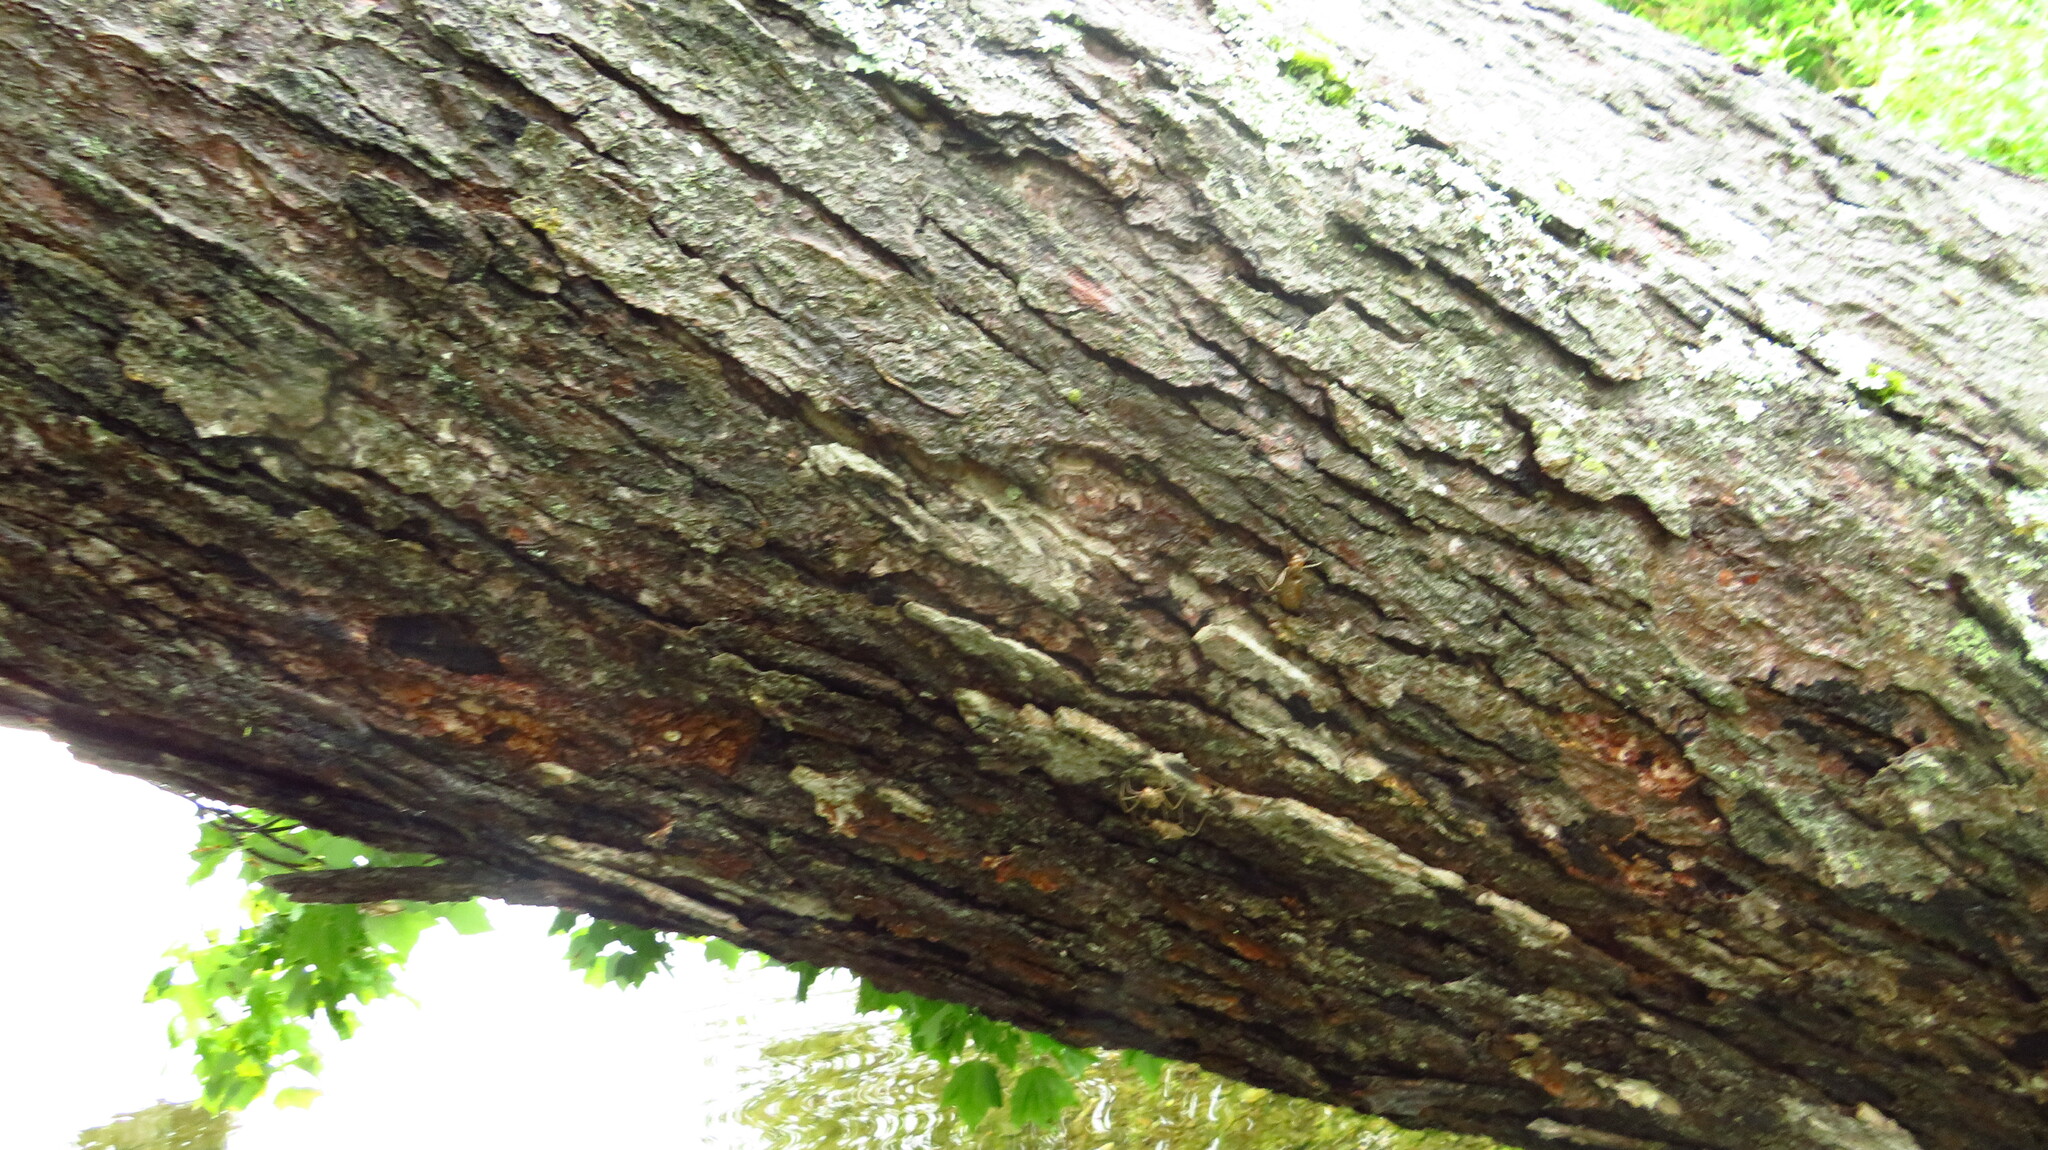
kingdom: Plantae
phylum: Tracheophyta
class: Magnoliopsida
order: Sapindales
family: Sapindaceae
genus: Acer
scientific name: Acer rubrum
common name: Red maple
